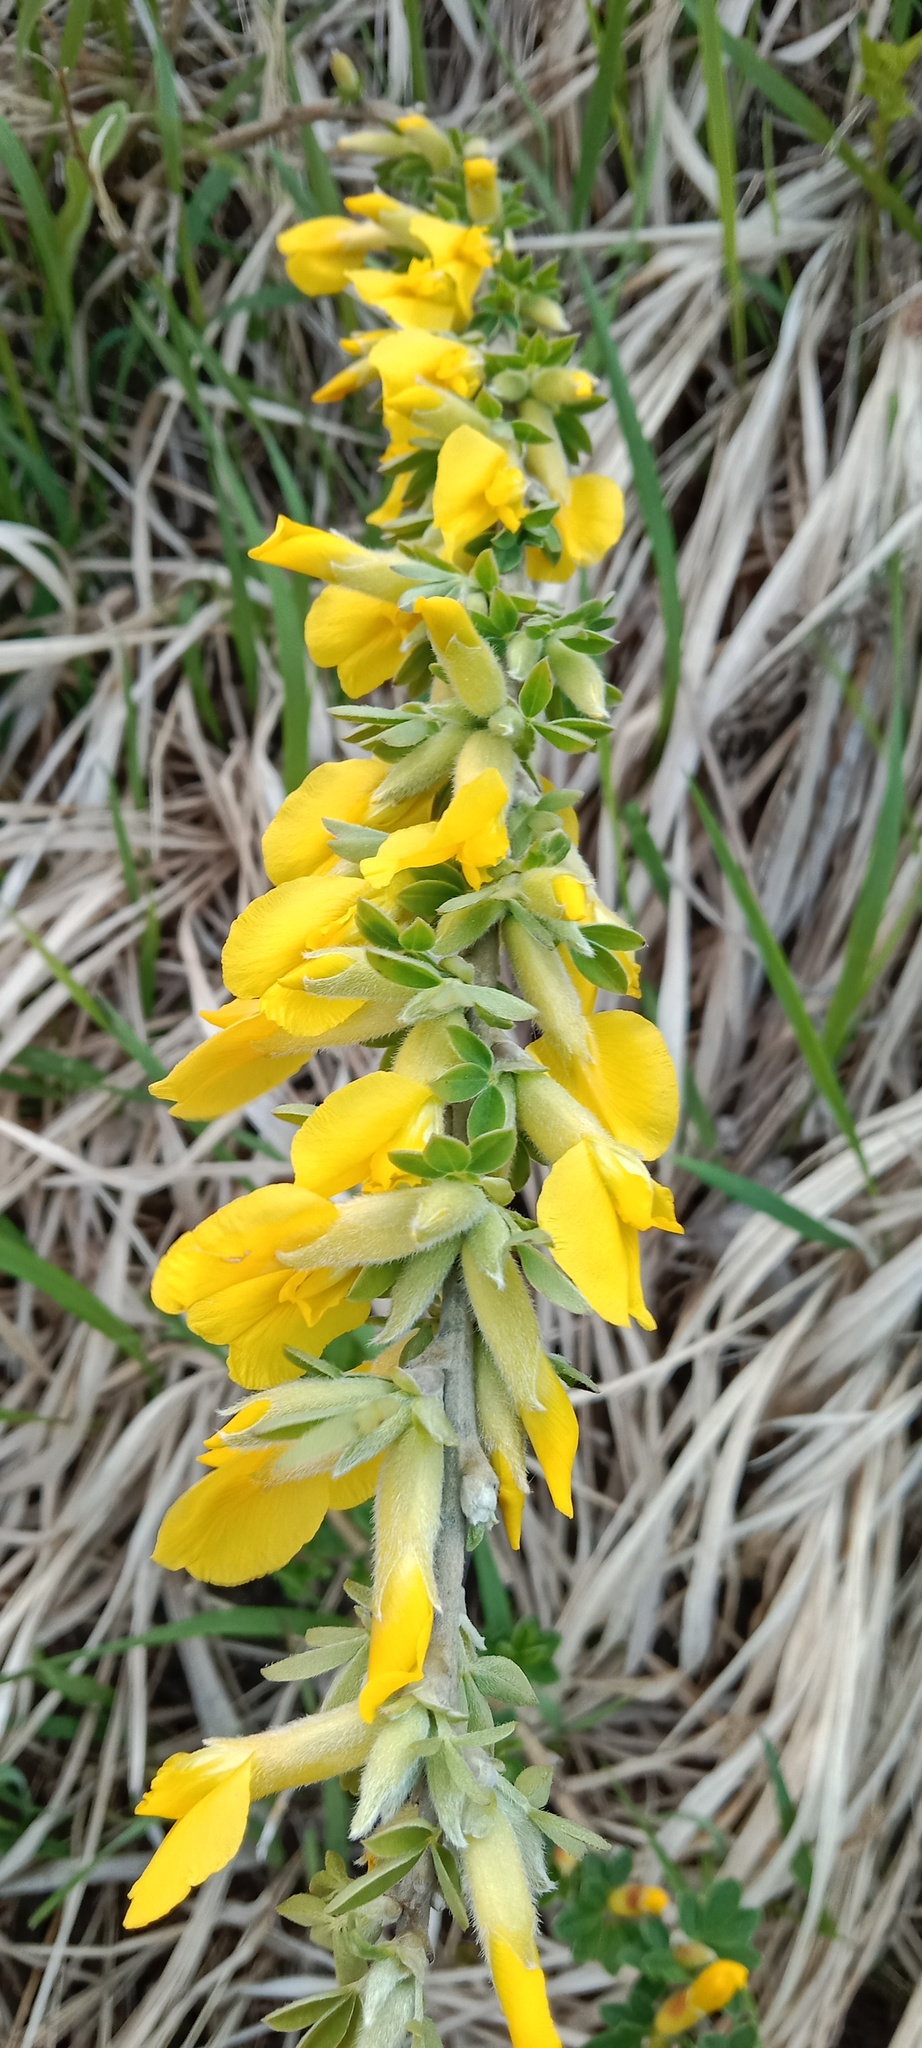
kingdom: Plantae
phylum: Tracheophyta
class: Magnoliopsida
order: Fabales
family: Fabaceae
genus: Chamaecytisus
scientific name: Chamaecytisus ruthenicus
